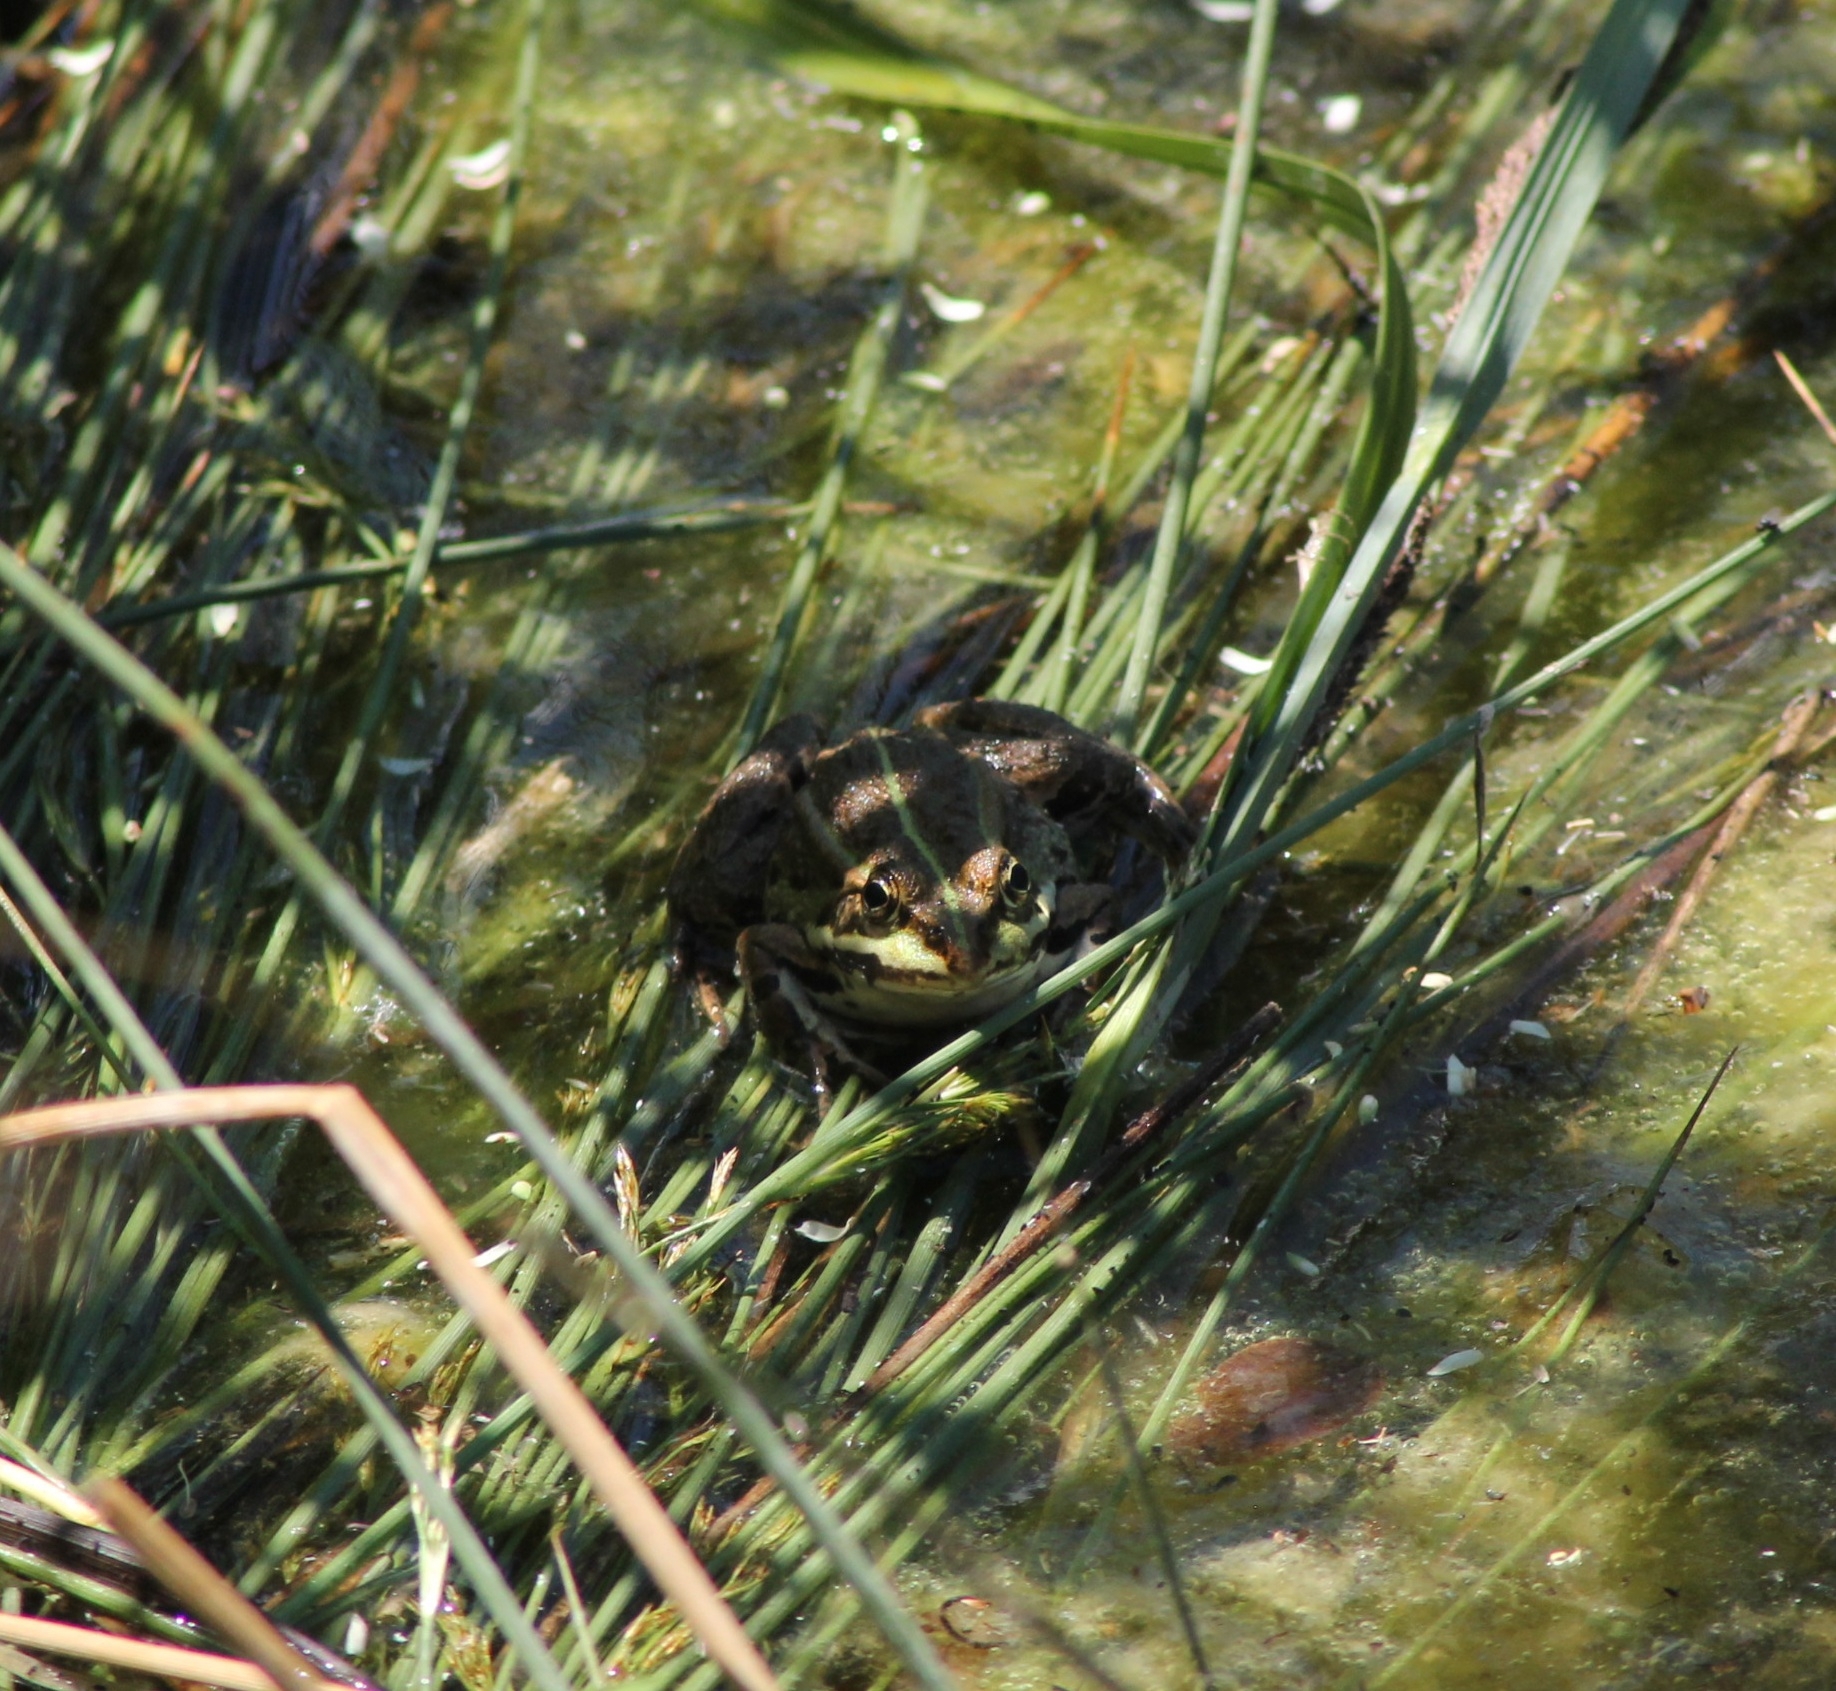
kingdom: Animalia
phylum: Chordata
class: Amphibia
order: Anura
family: Ranidae
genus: Pelophylax
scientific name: Pelophylax
